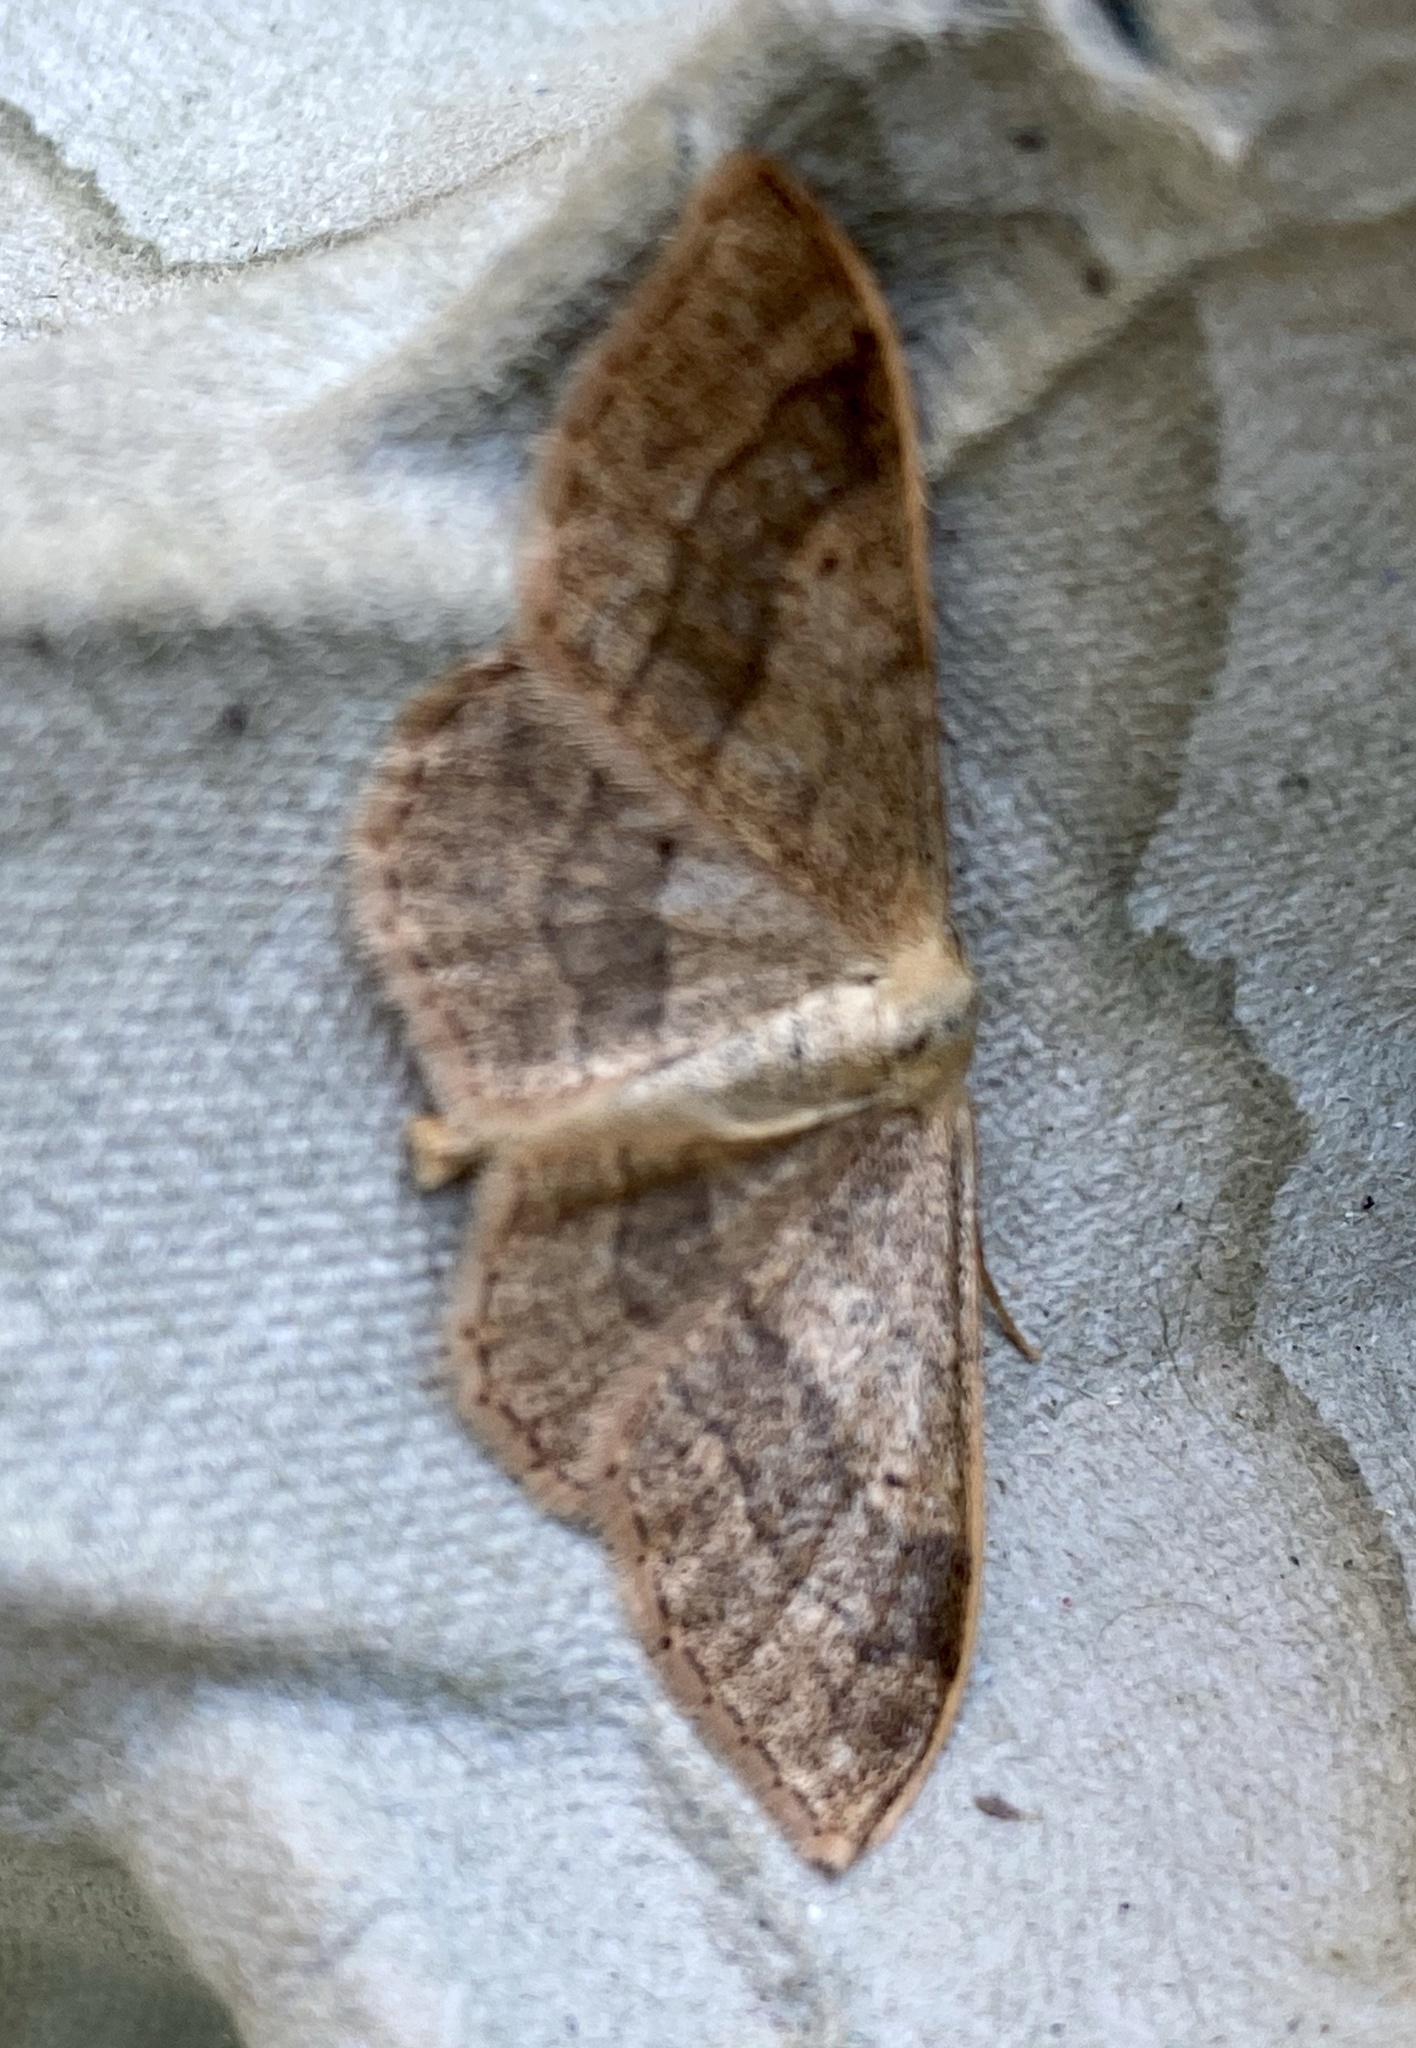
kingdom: Animalia
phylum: Arthropoda
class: Insecta
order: Lepidoptera
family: Geometridae
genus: Idaea
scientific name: Idaea aversata
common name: Riband wave
